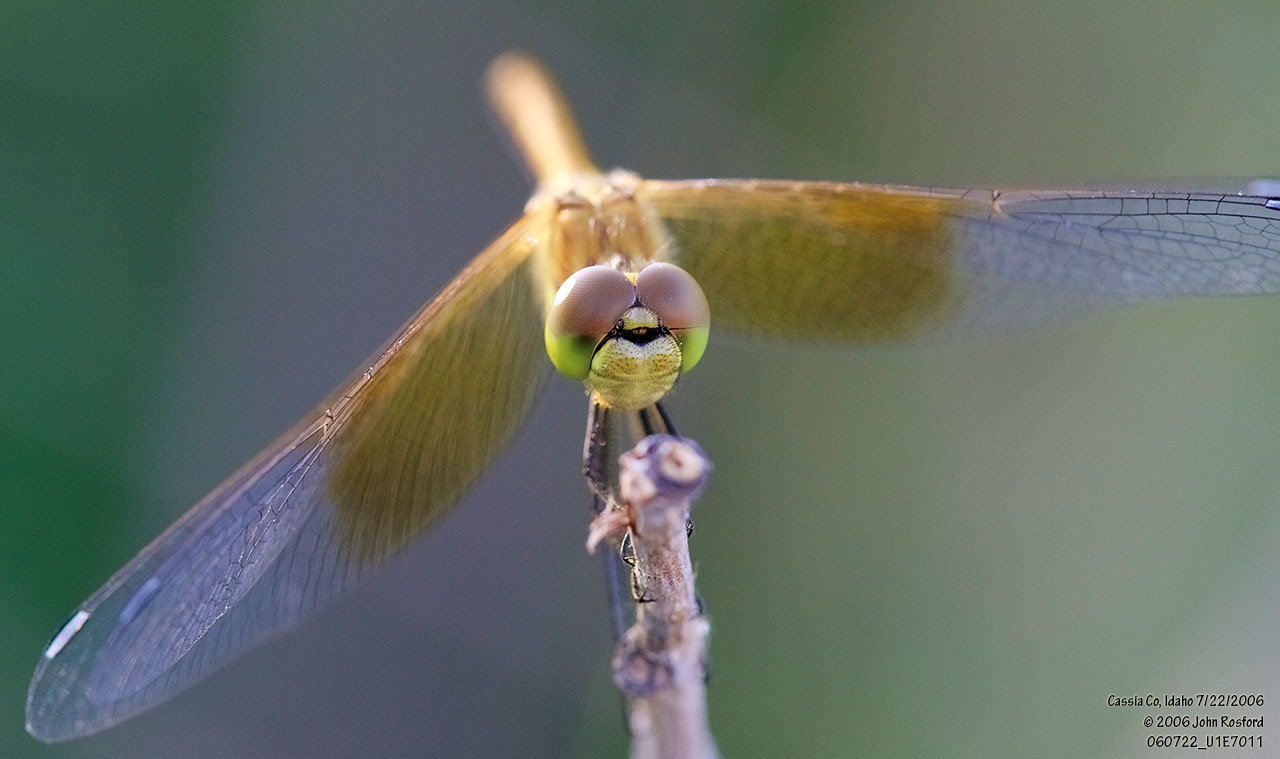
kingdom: Animalia
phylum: Arthropoda
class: Insecta
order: Odonata
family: Libellulidae
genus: Sympetrum
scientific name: Sympetrum semicinctum
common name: Band-winged meadowhawk
